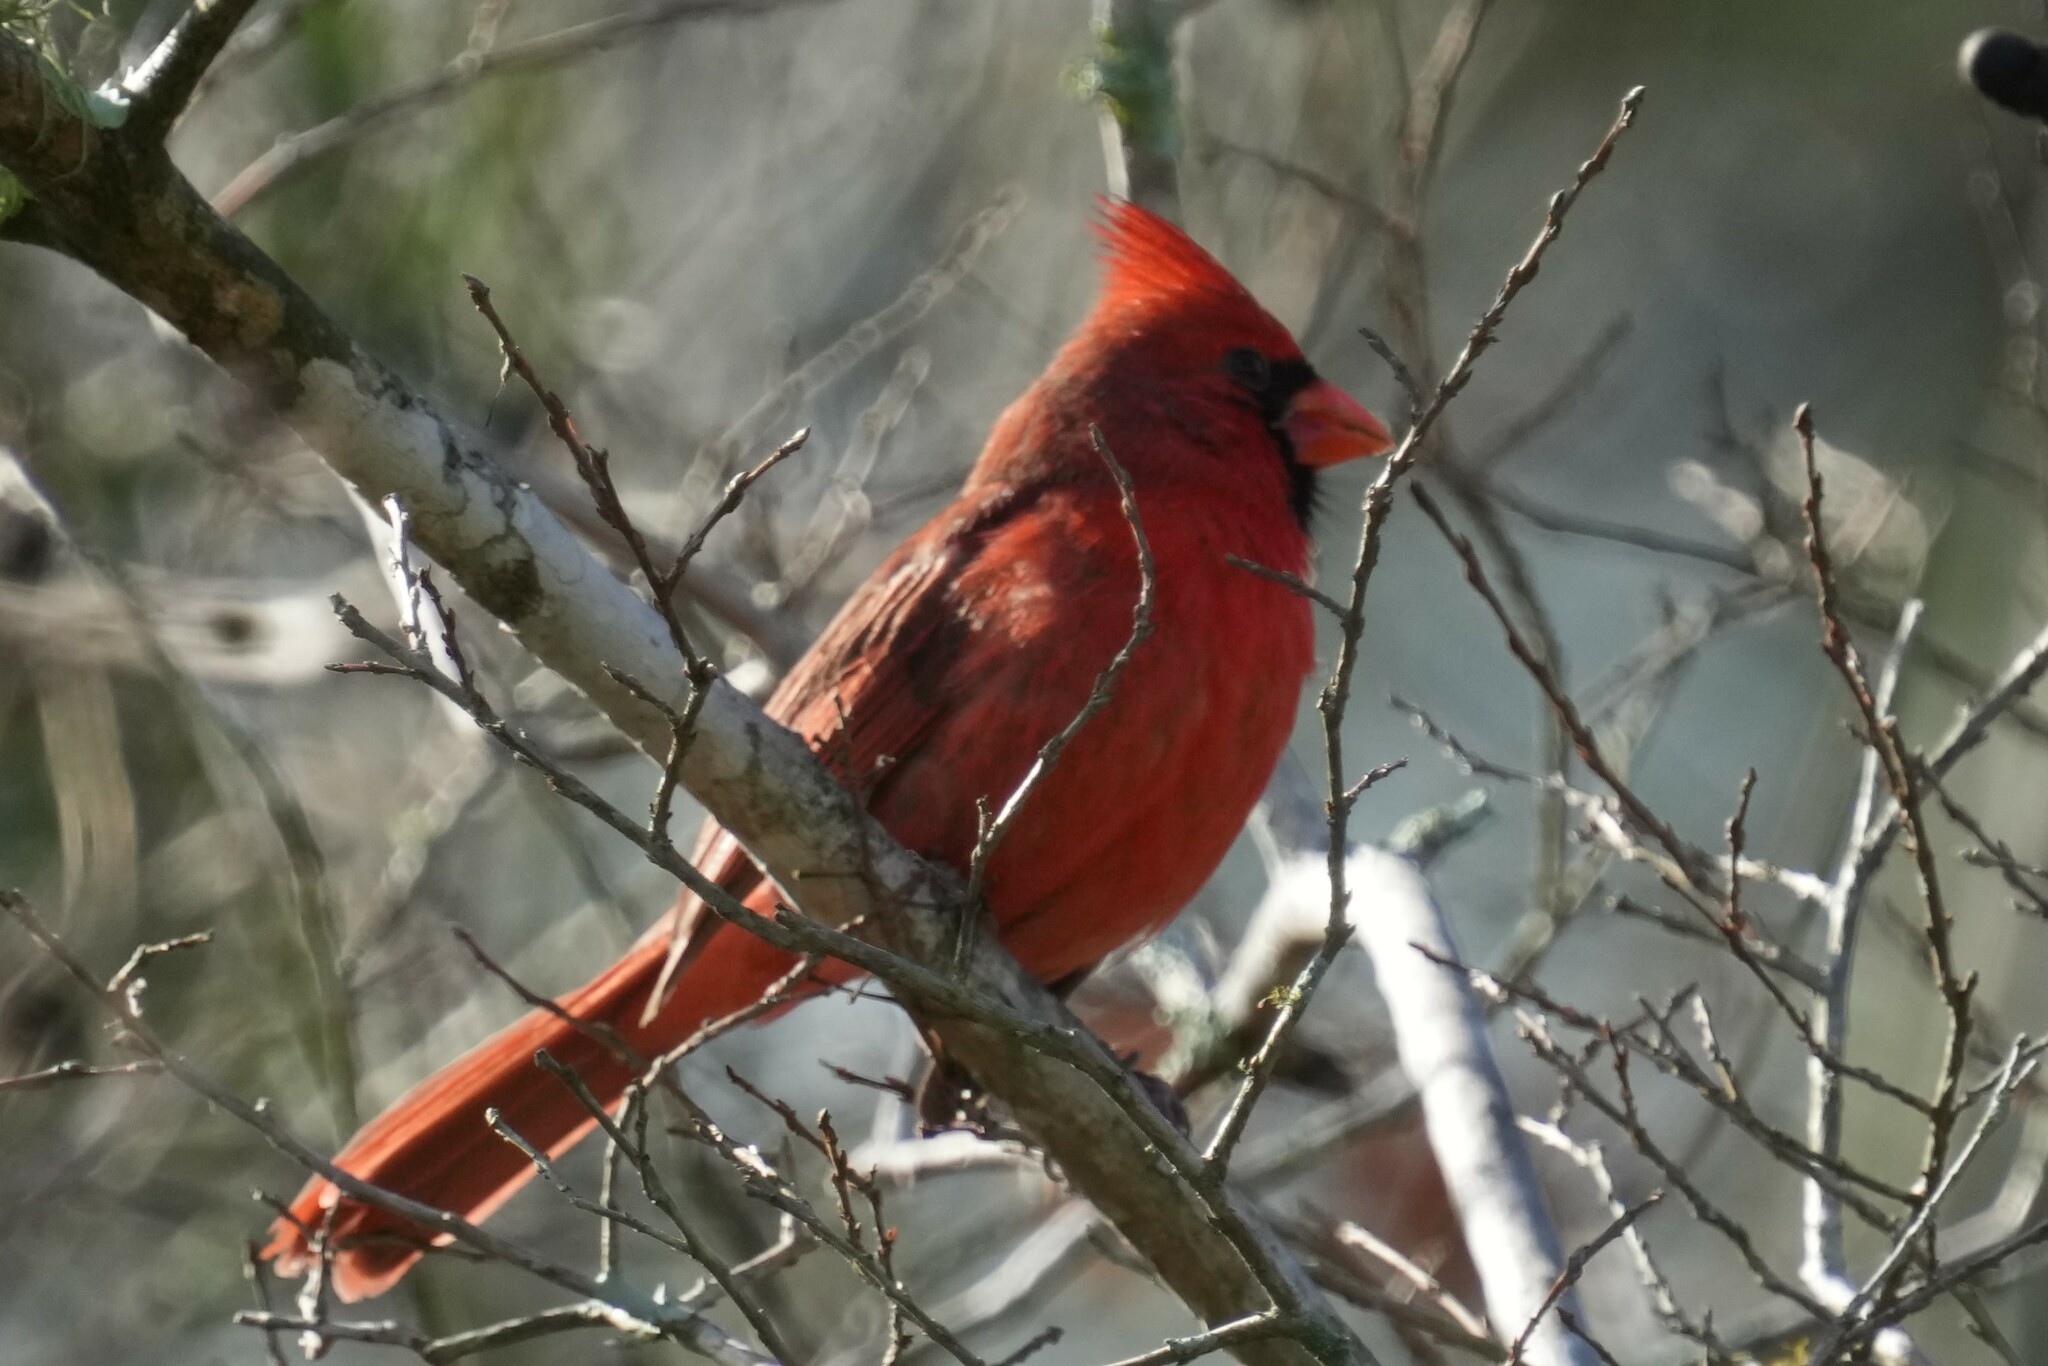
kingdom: Animalia
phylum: Chordata
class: Aves
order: Passeriformes
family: Cardinalidae
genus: Cardinalis
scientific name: Cardinalis cardinalis
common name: Northern cardinal
